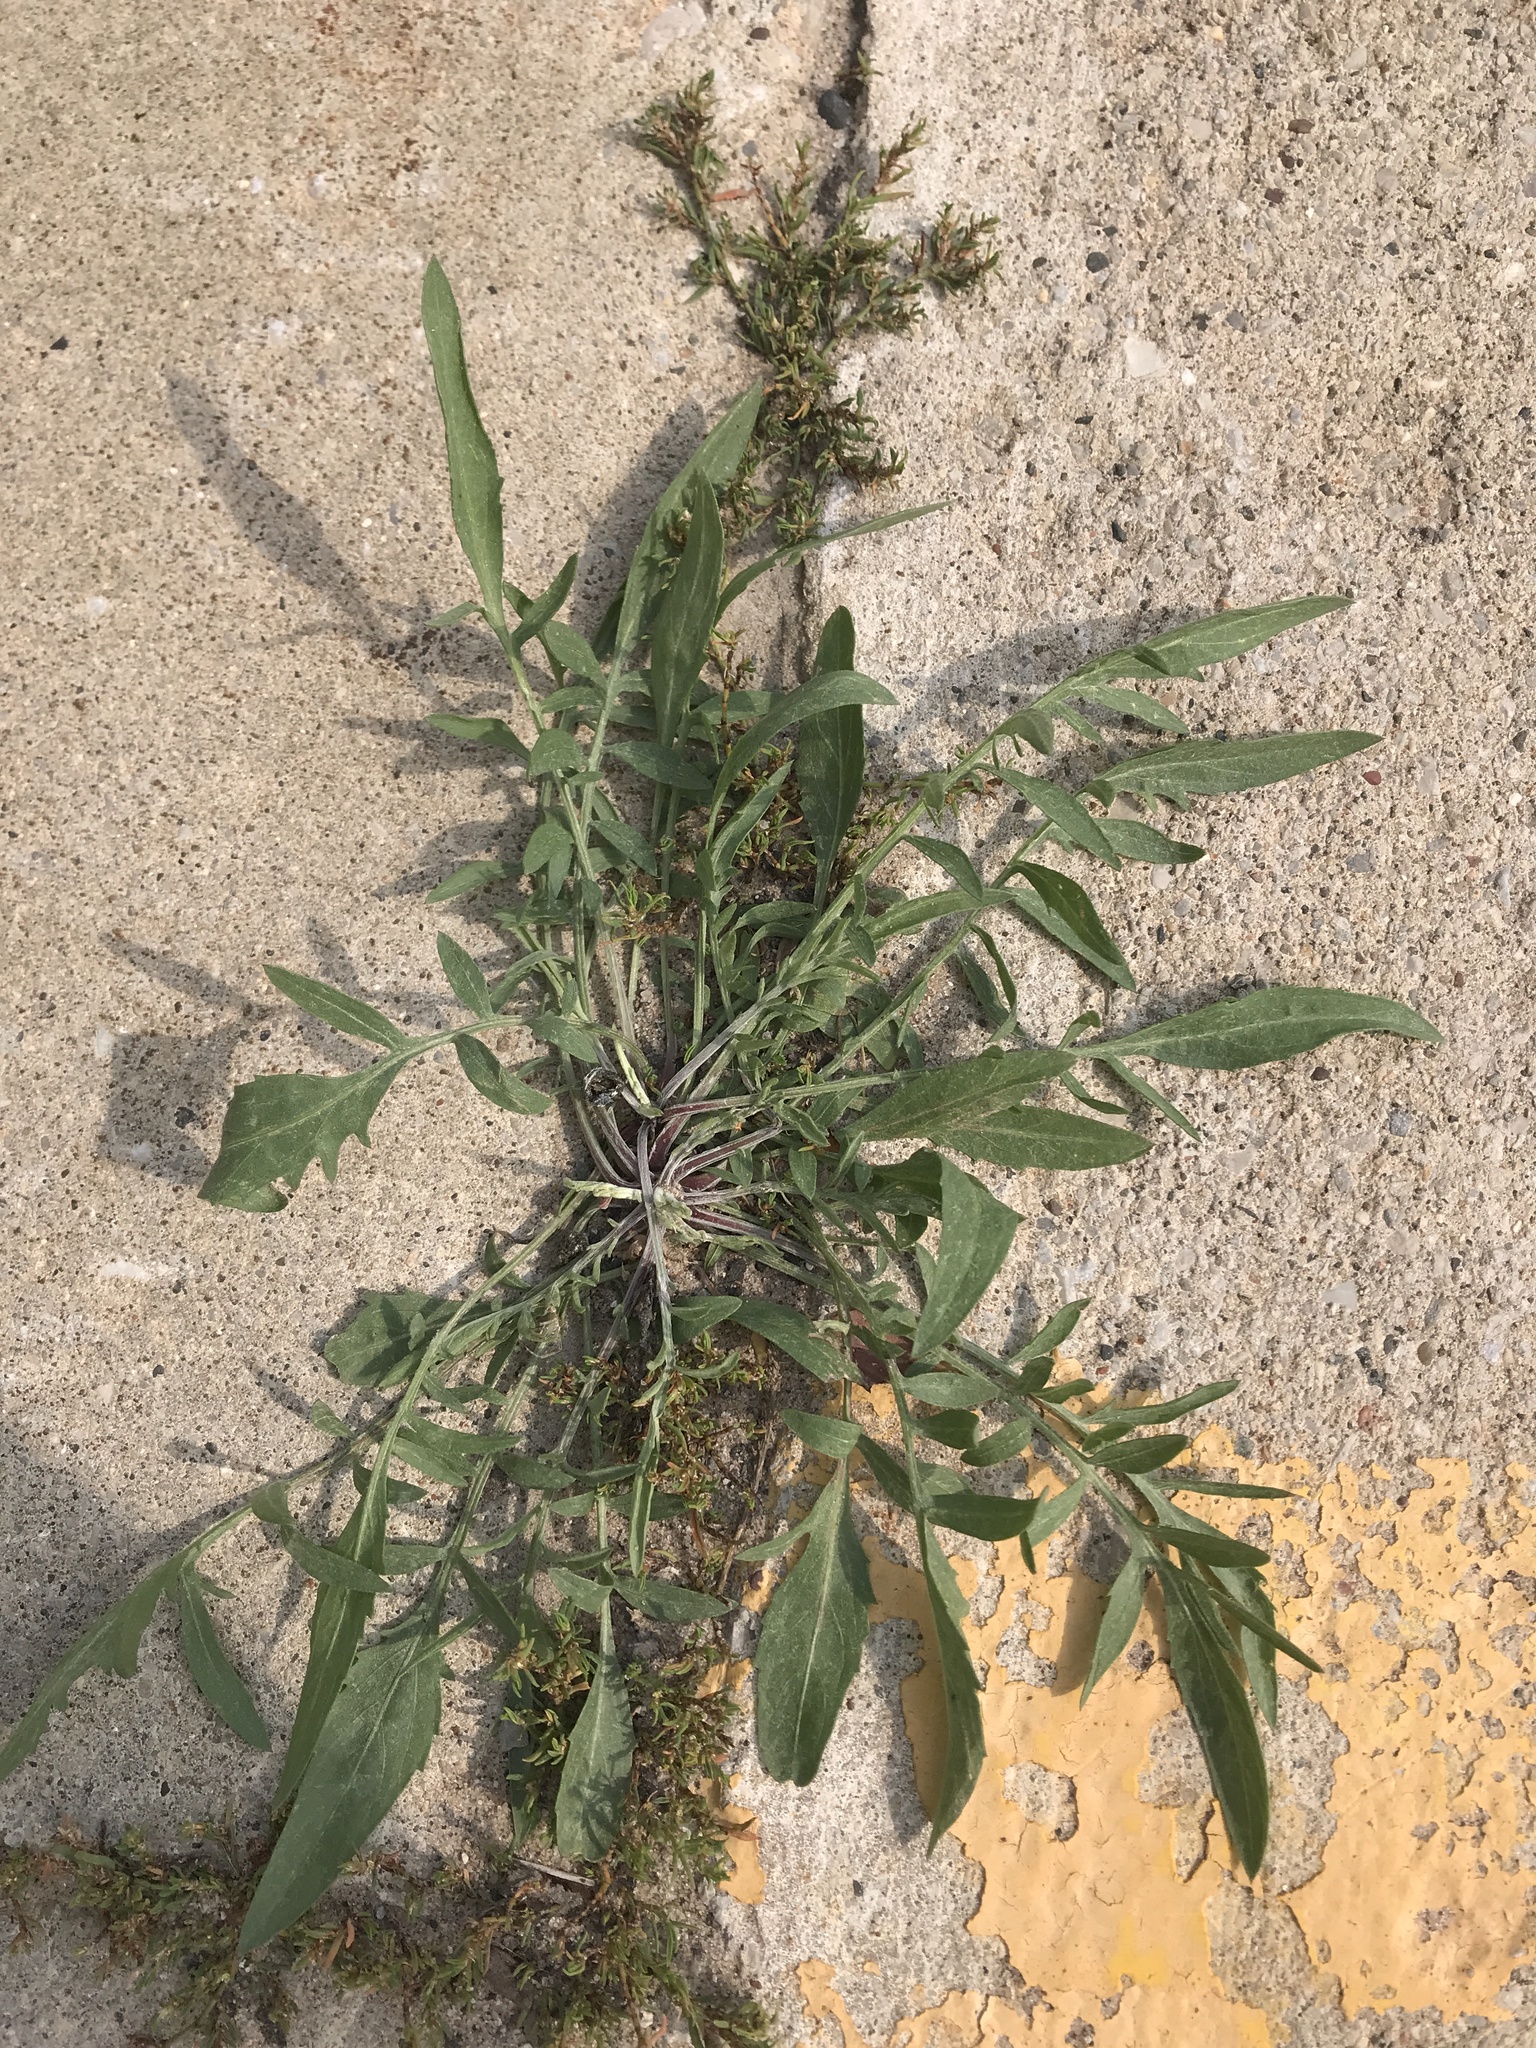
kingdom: Plantae
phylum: Tracheophyta
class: Magnoliopsida
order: Asterales
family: Asteraceae
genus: Centaurea
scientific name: Centaurea stoebe
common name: Spotted knapweed
